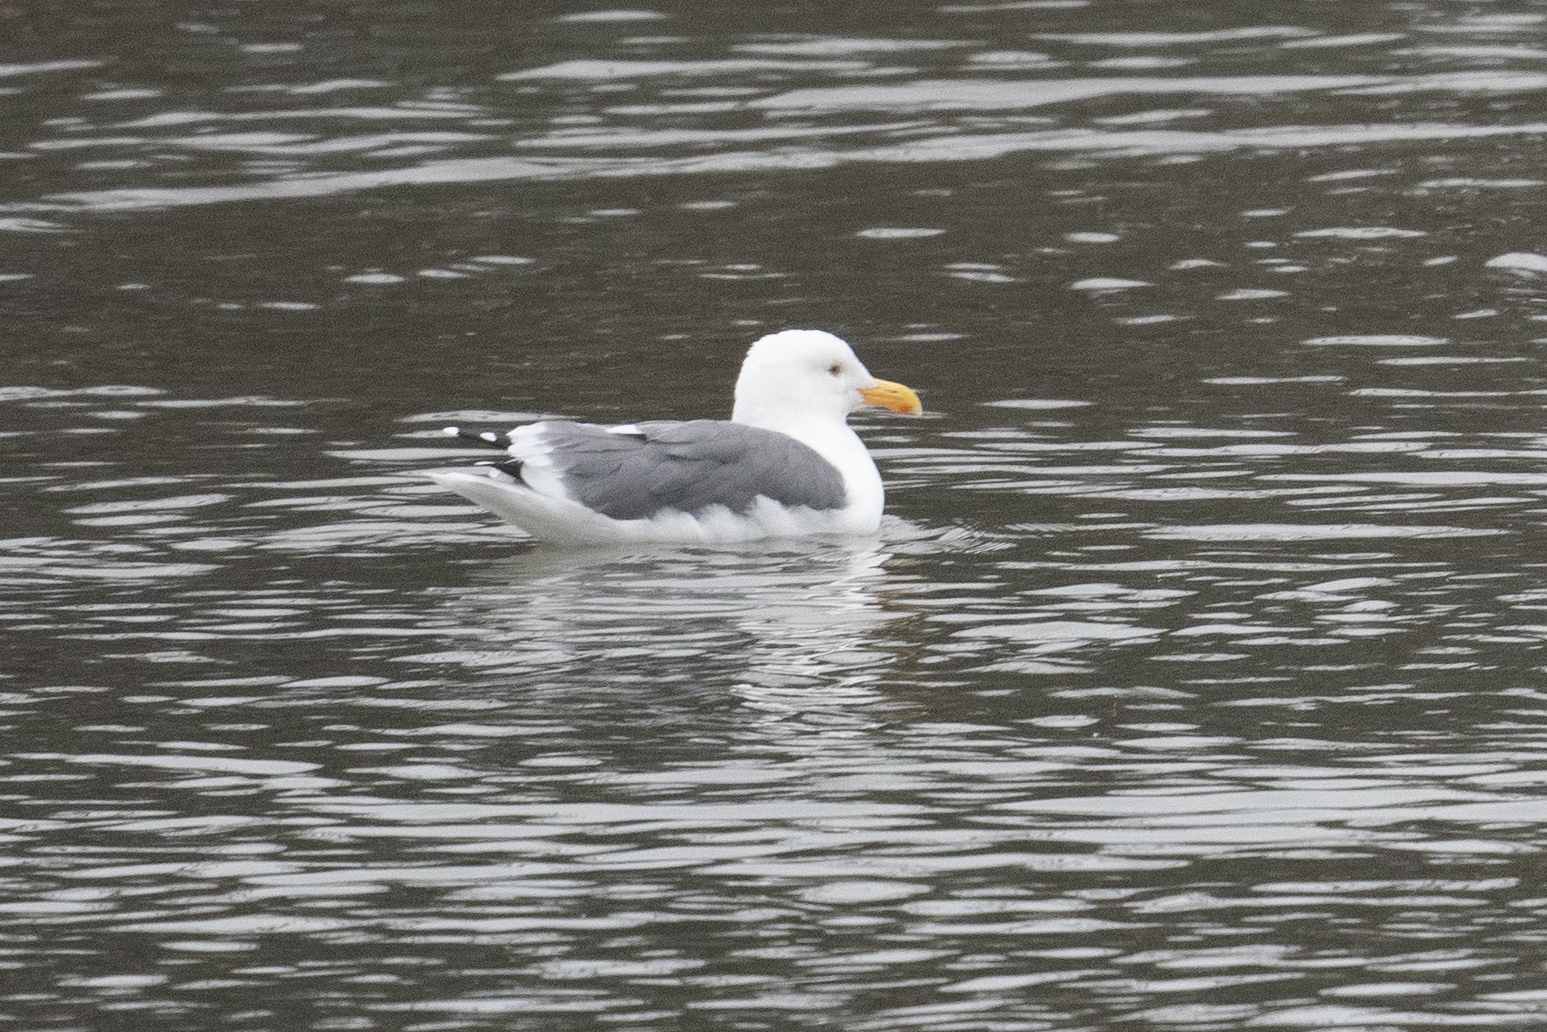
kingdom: Animalia
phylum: Chordata
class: Aves
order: Charadriiformes
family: Laridae
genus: Larus
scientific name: Larus occidentalis
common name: Western gull
